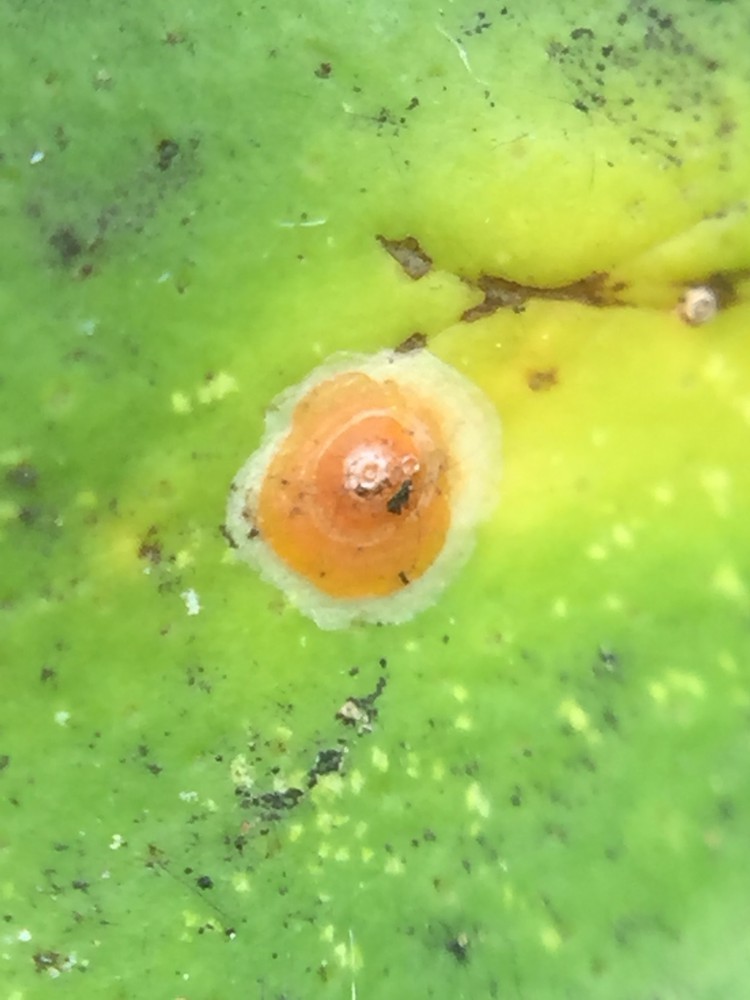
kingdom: Animalia
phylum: Arthropoda
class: Insecta
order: Hemiptera
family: Diaspididae
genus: Aonidiella
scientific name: Aonidiella aurantii
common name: California red scale
